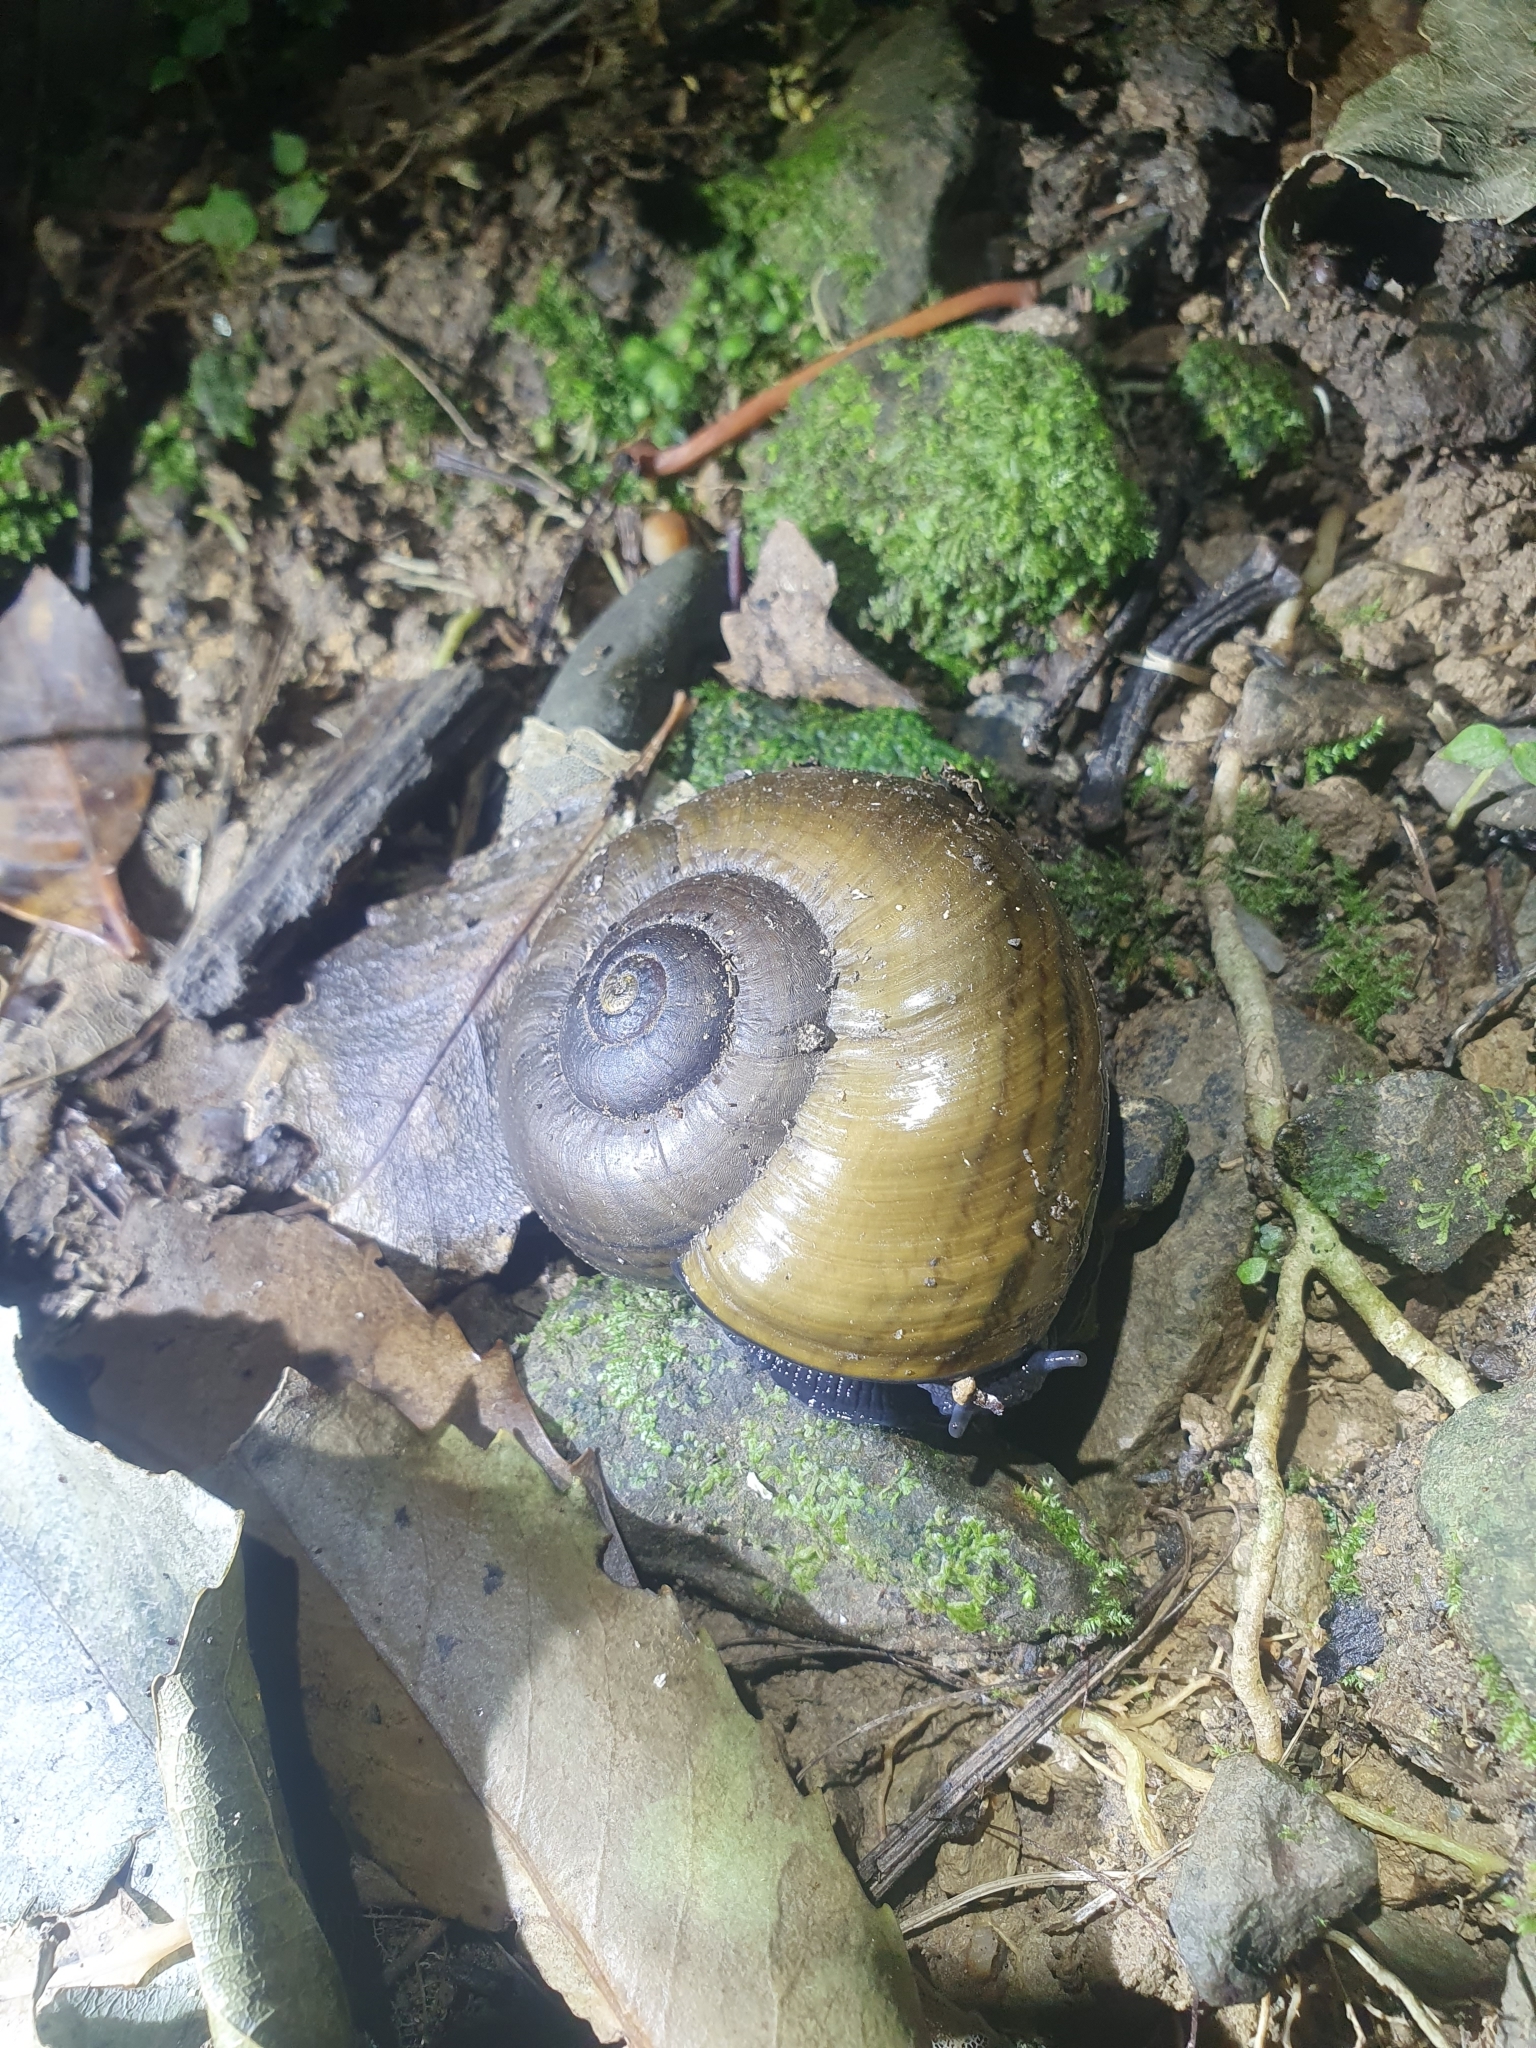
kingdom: Animalia
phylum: Mollusca
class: Gastropoda
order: Stylommatophora
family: Rhytididae
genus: Powelliphanta
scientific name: Powelliphanta hochstetteri
